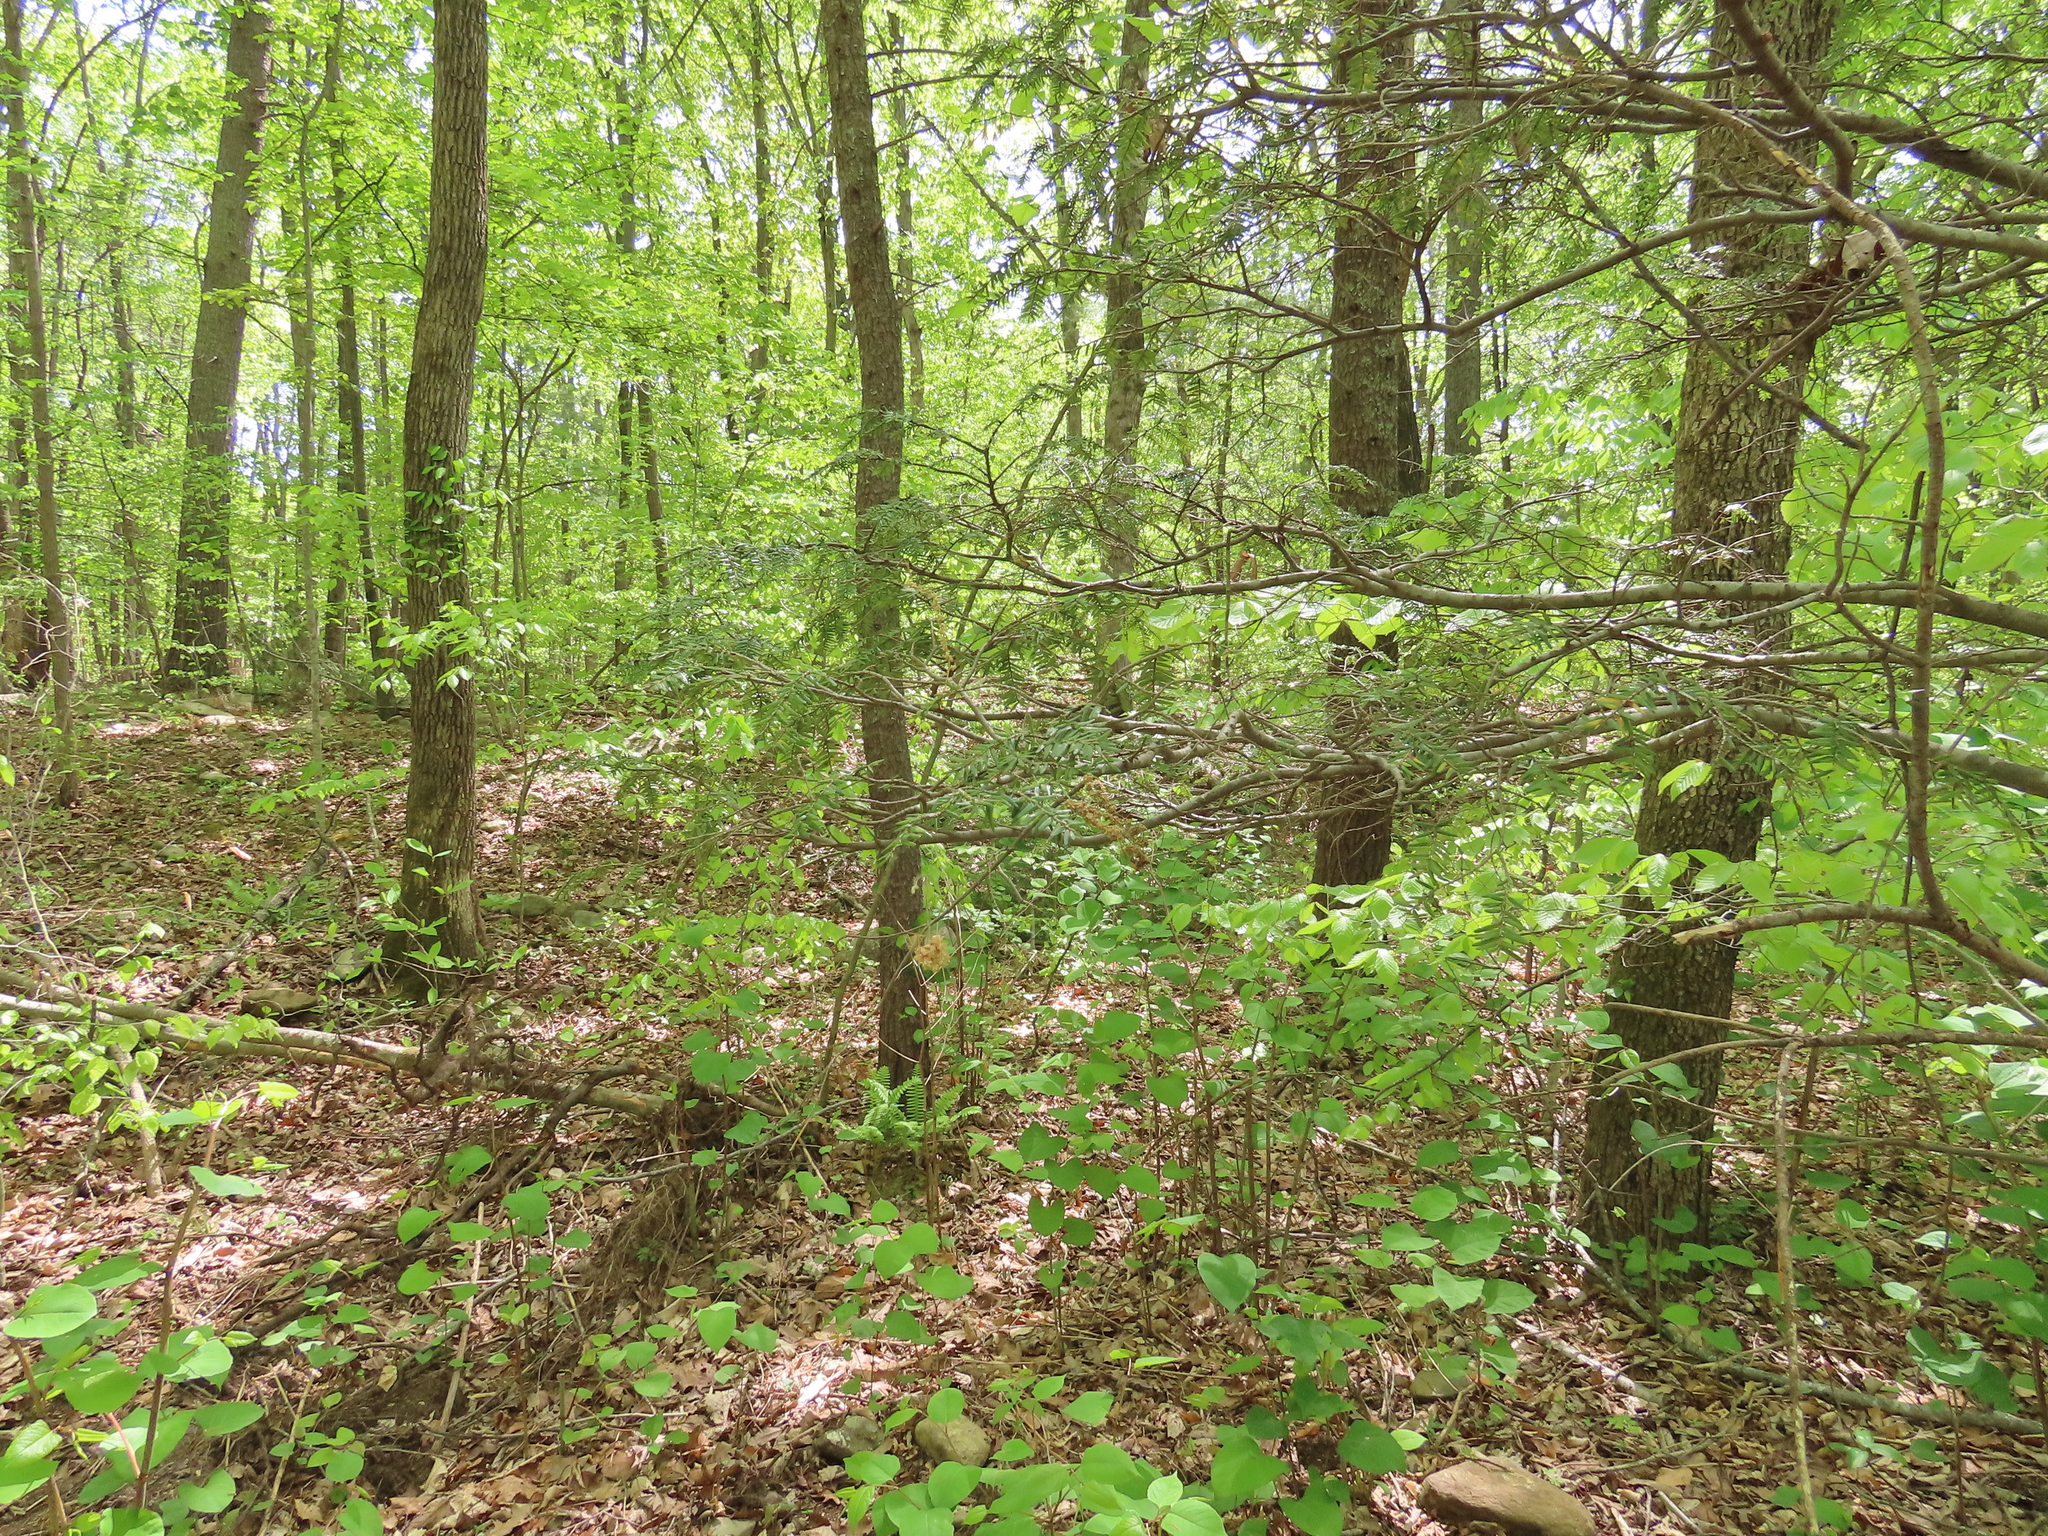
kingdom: Plantae
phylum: Tracheophyta
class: Pinopsida
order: Pinales
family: Pinaceae
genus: Tsuga
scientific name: Tsuga canadensis
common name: Eastern hemlock
